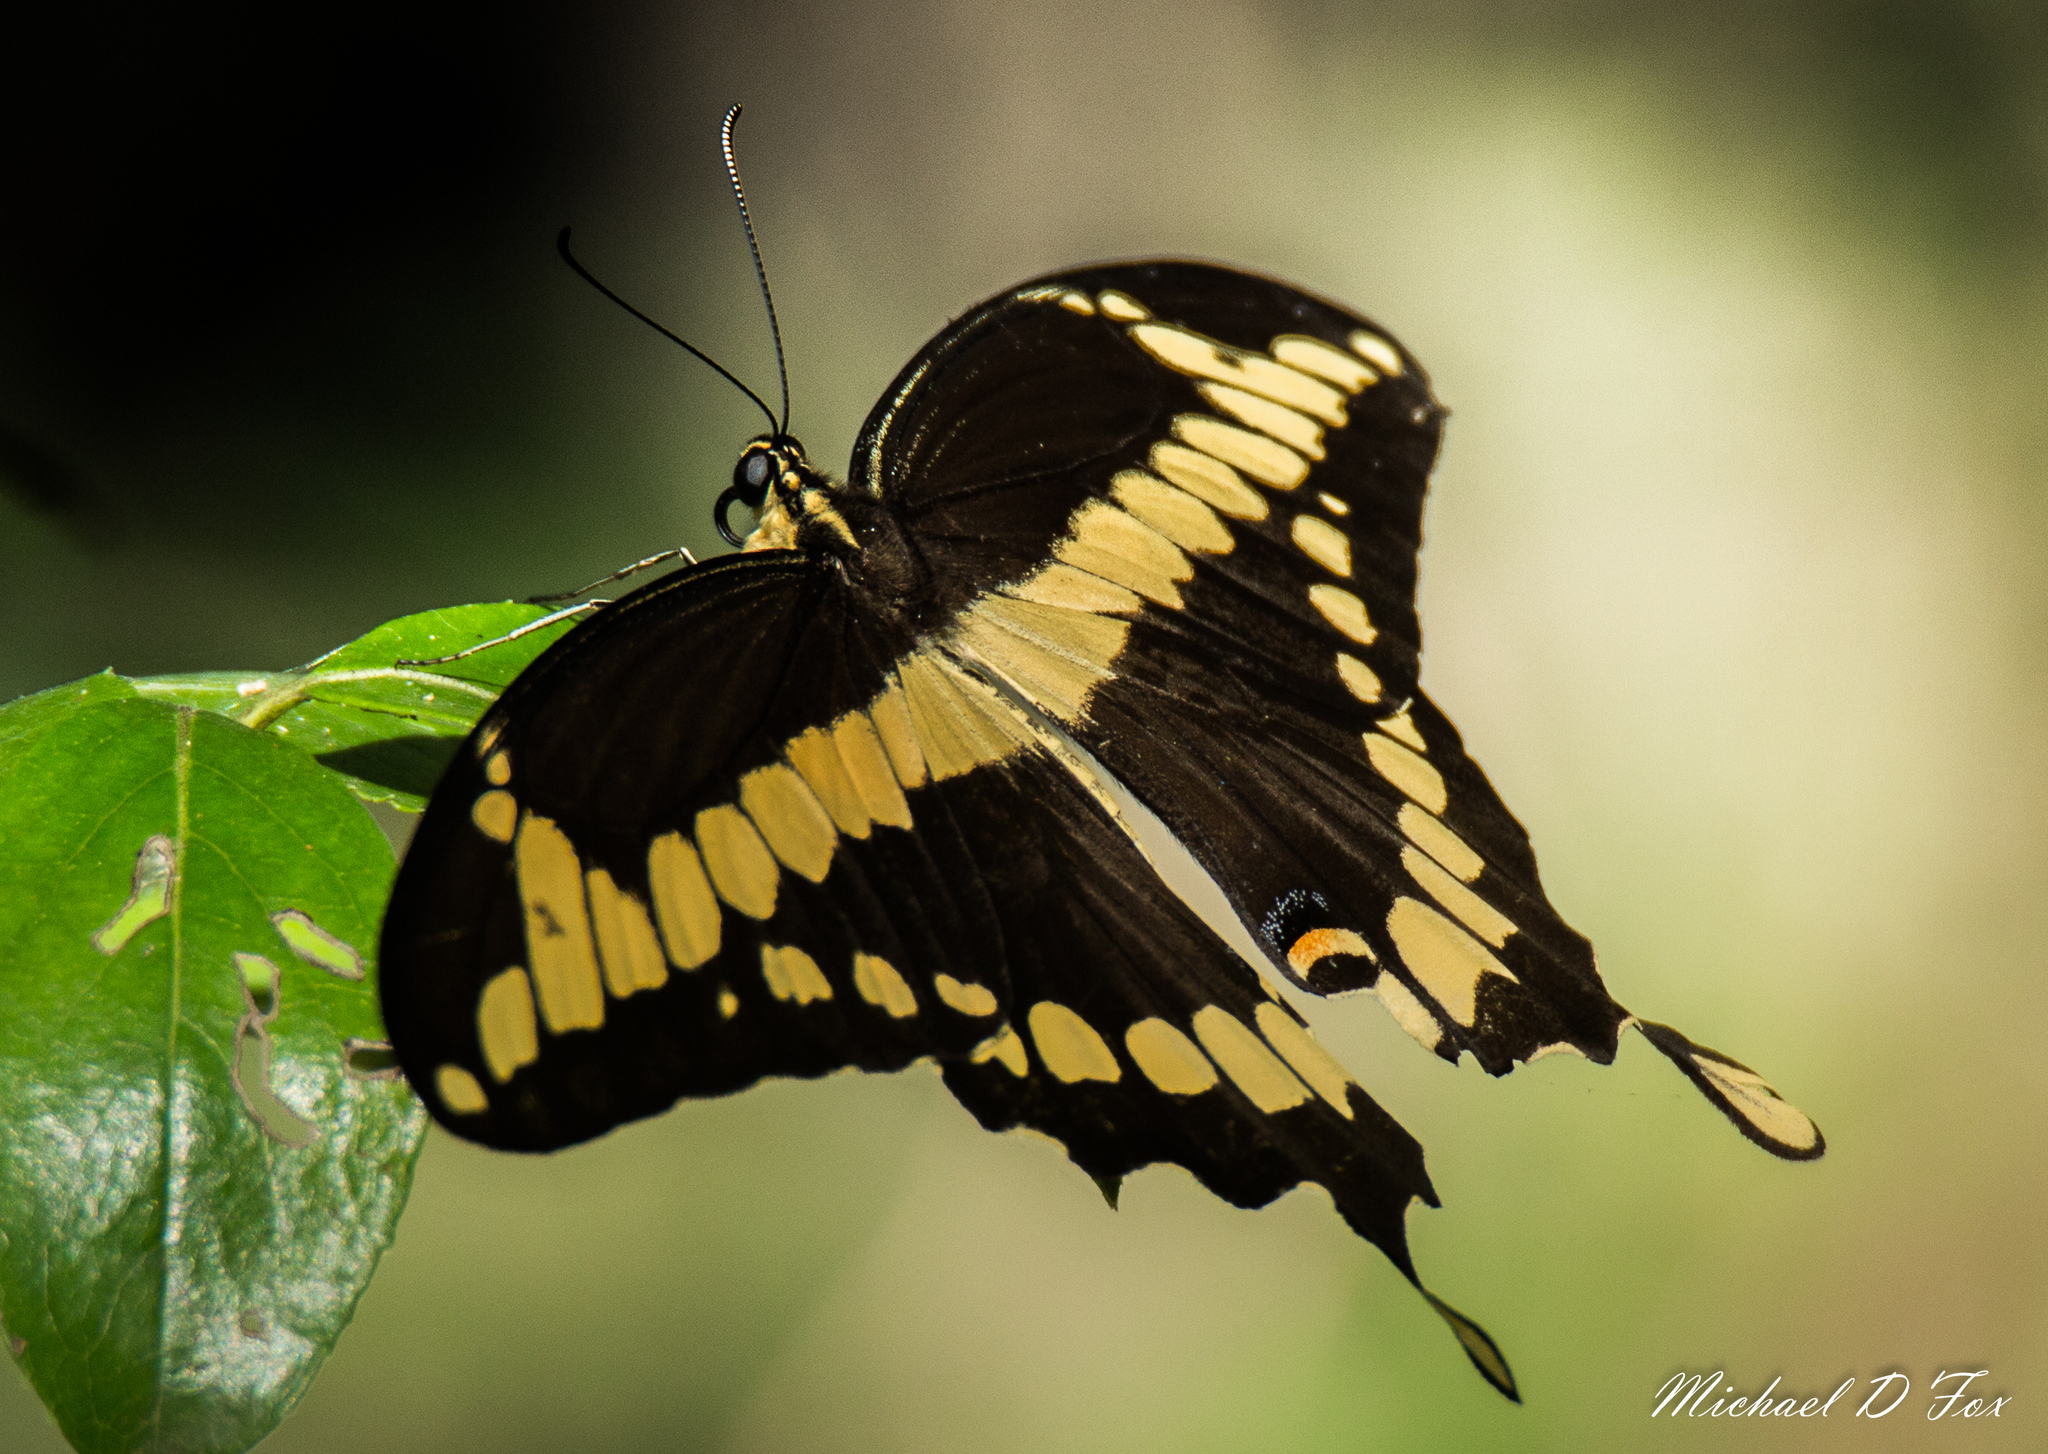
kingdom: Animalia
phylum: Arthropoda
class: Insecta
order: Lepidoptera
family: Papilionidae
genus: Papilio
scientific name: Papilio cresphontes
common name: Giant swallowtail
